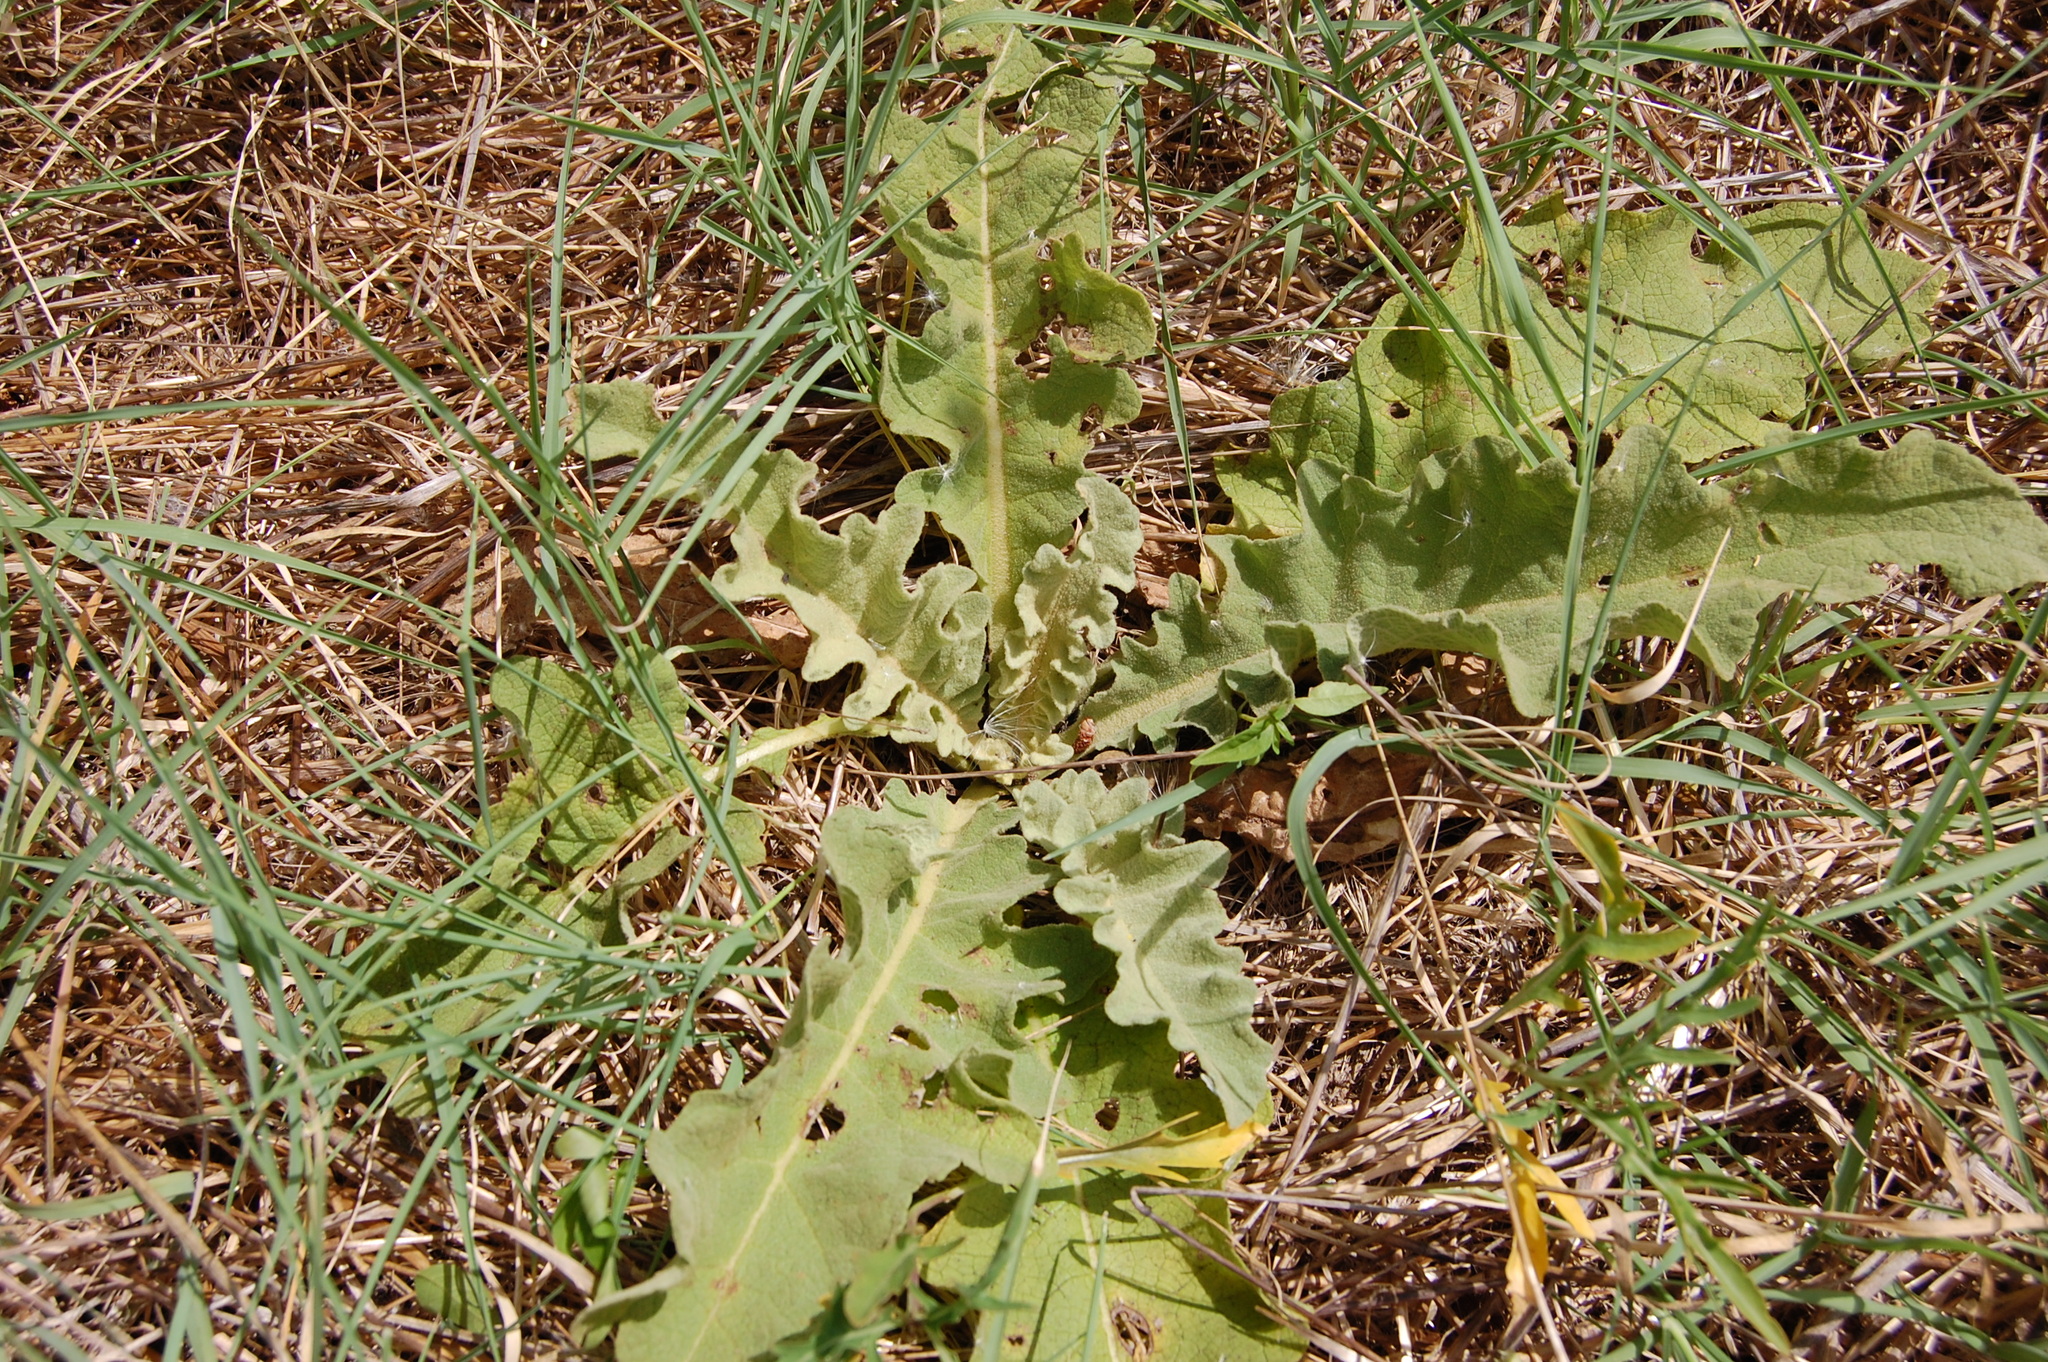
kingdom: Plantae
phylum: Tracheophyta
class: Magnoliopsida
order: Lamiales
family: Scrophulariaceae
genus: Verbascum
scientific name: Verbascum sinuatum
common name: Wavyleaf mullein
